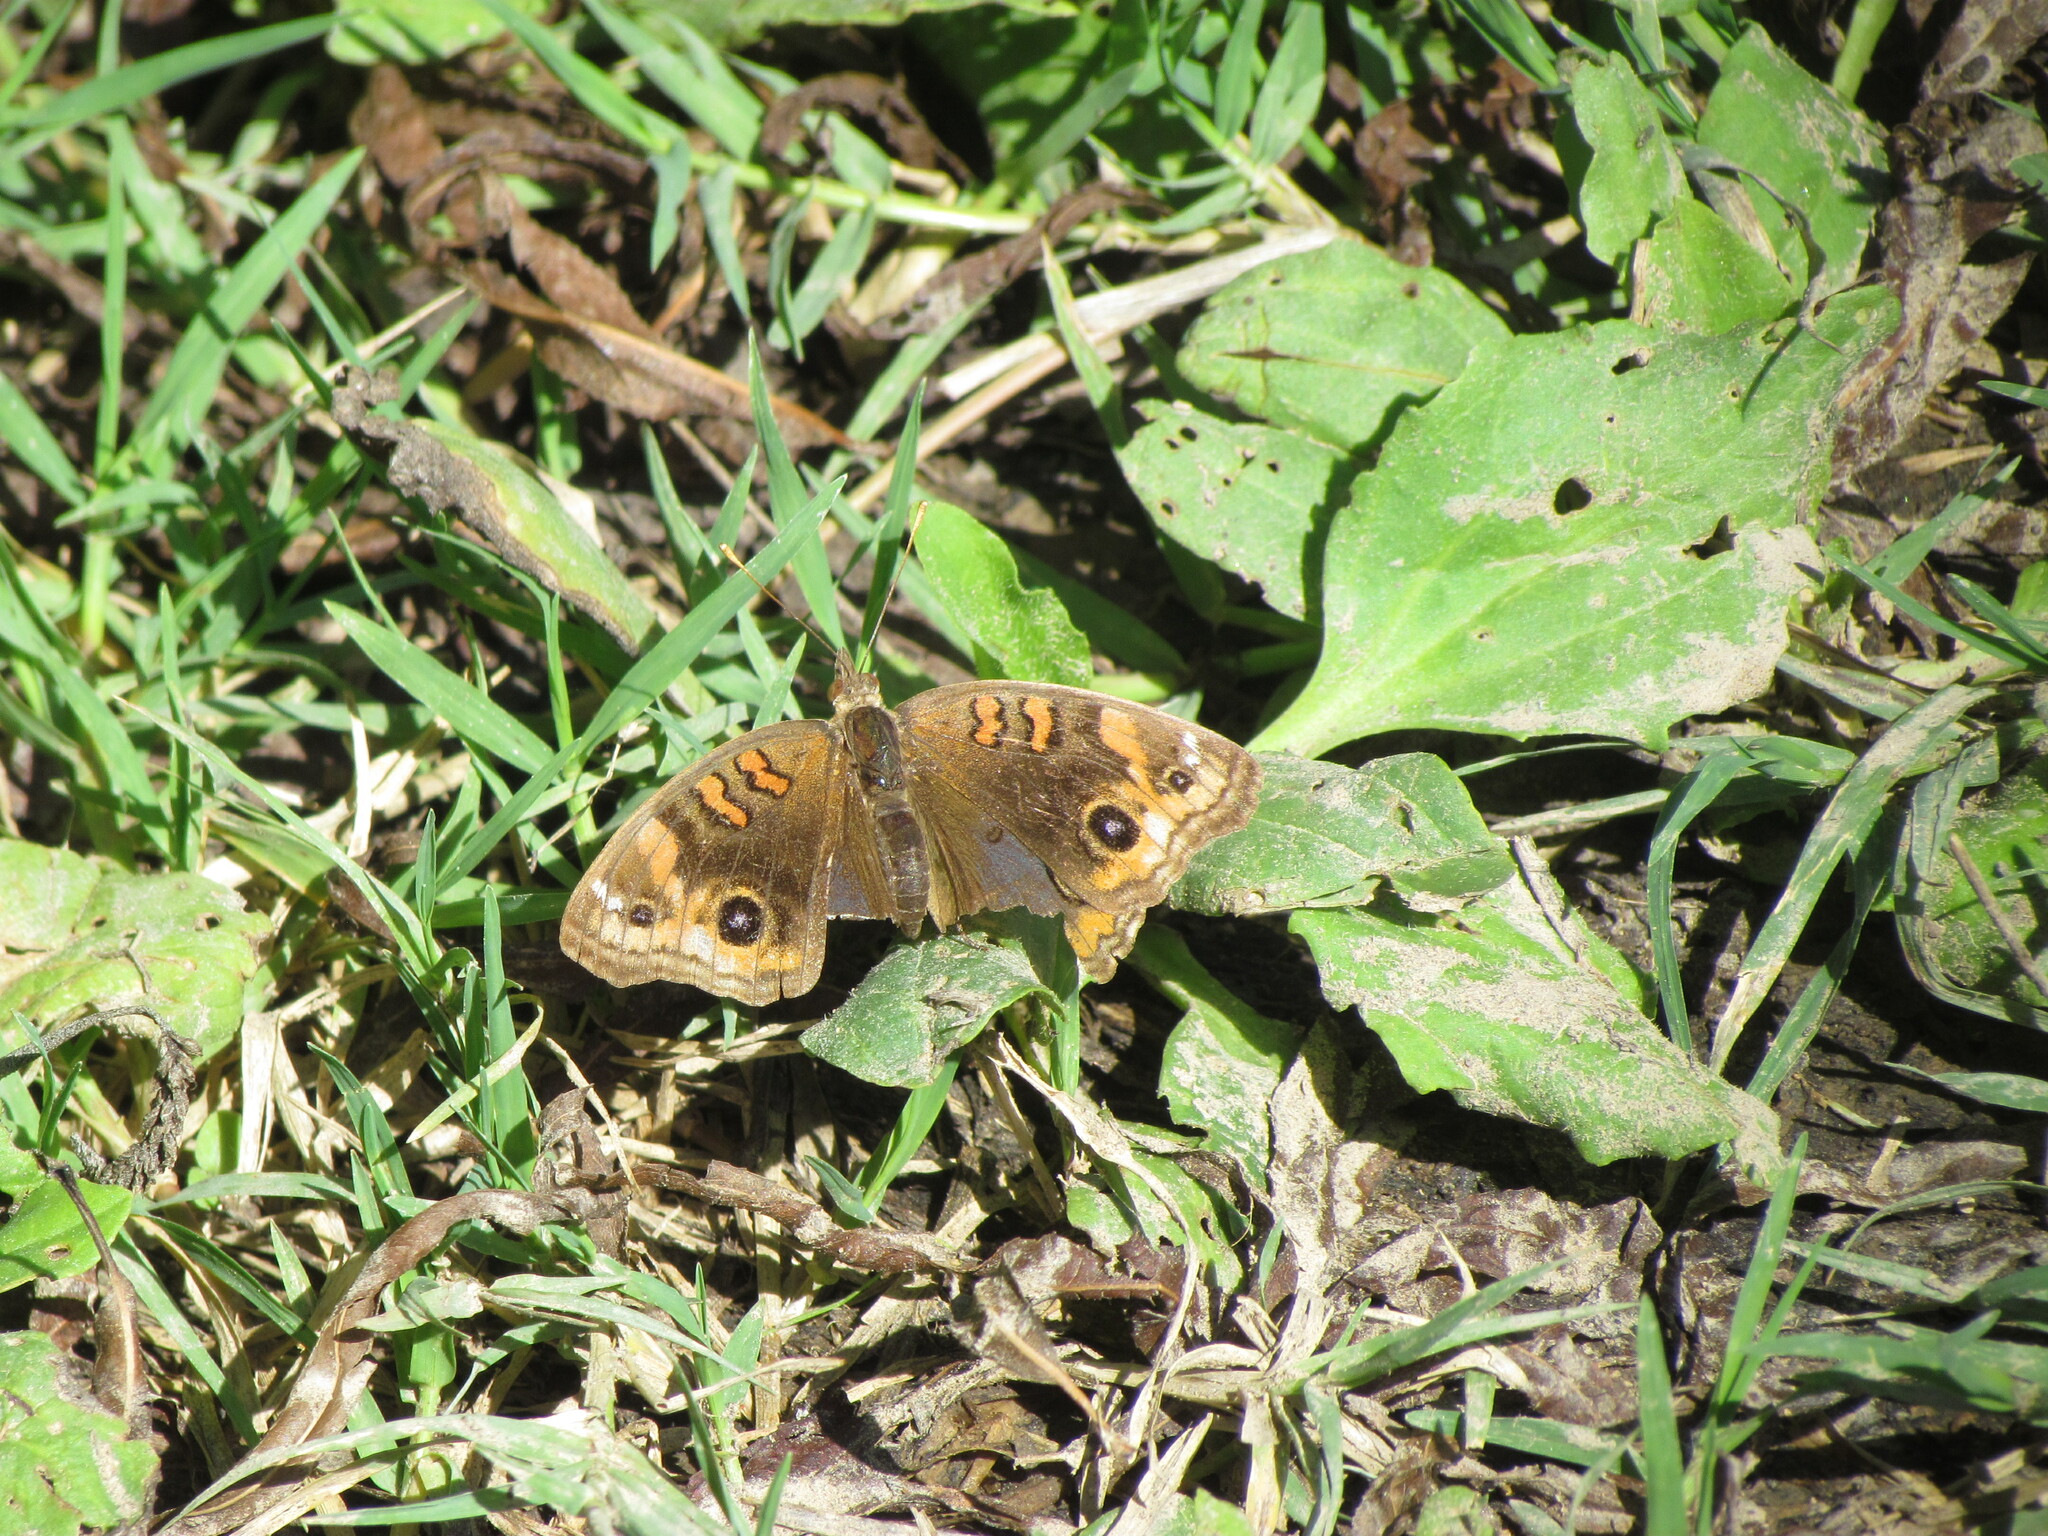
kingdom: Animalia
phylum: Arthropoda
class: Insecta
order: Lepidoptera
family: Nymphalidae
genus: Junonia
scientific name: Junonia lavinia
